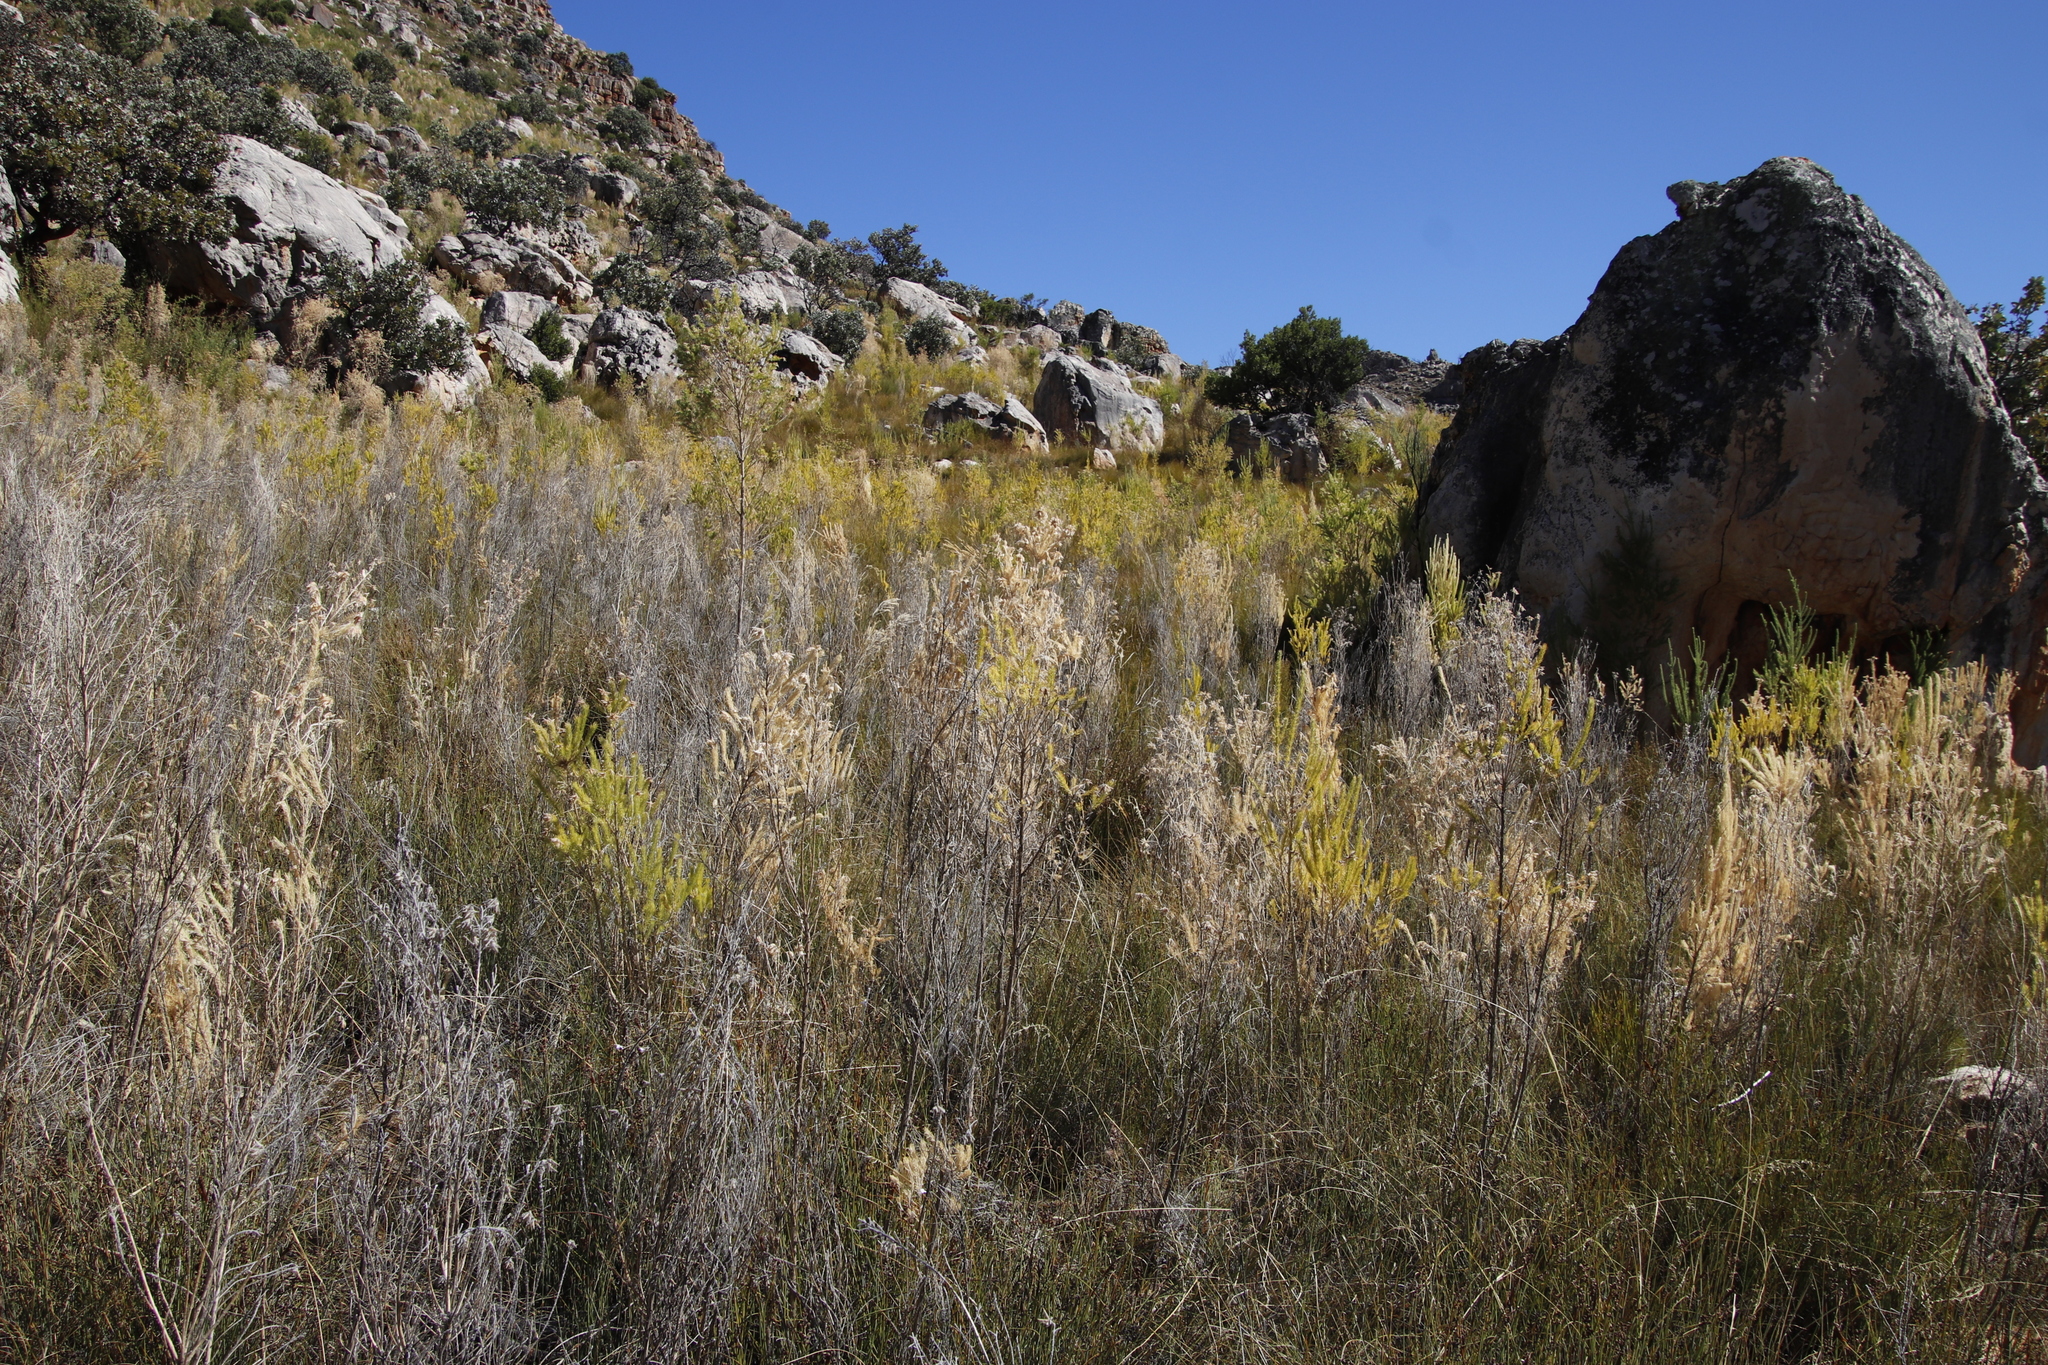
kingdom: Plantae
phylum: Tracheophyta
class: Magnoliopsida
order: Fabales
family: Fabaceae
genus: Aspalathus
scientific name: Aspalathus decora
